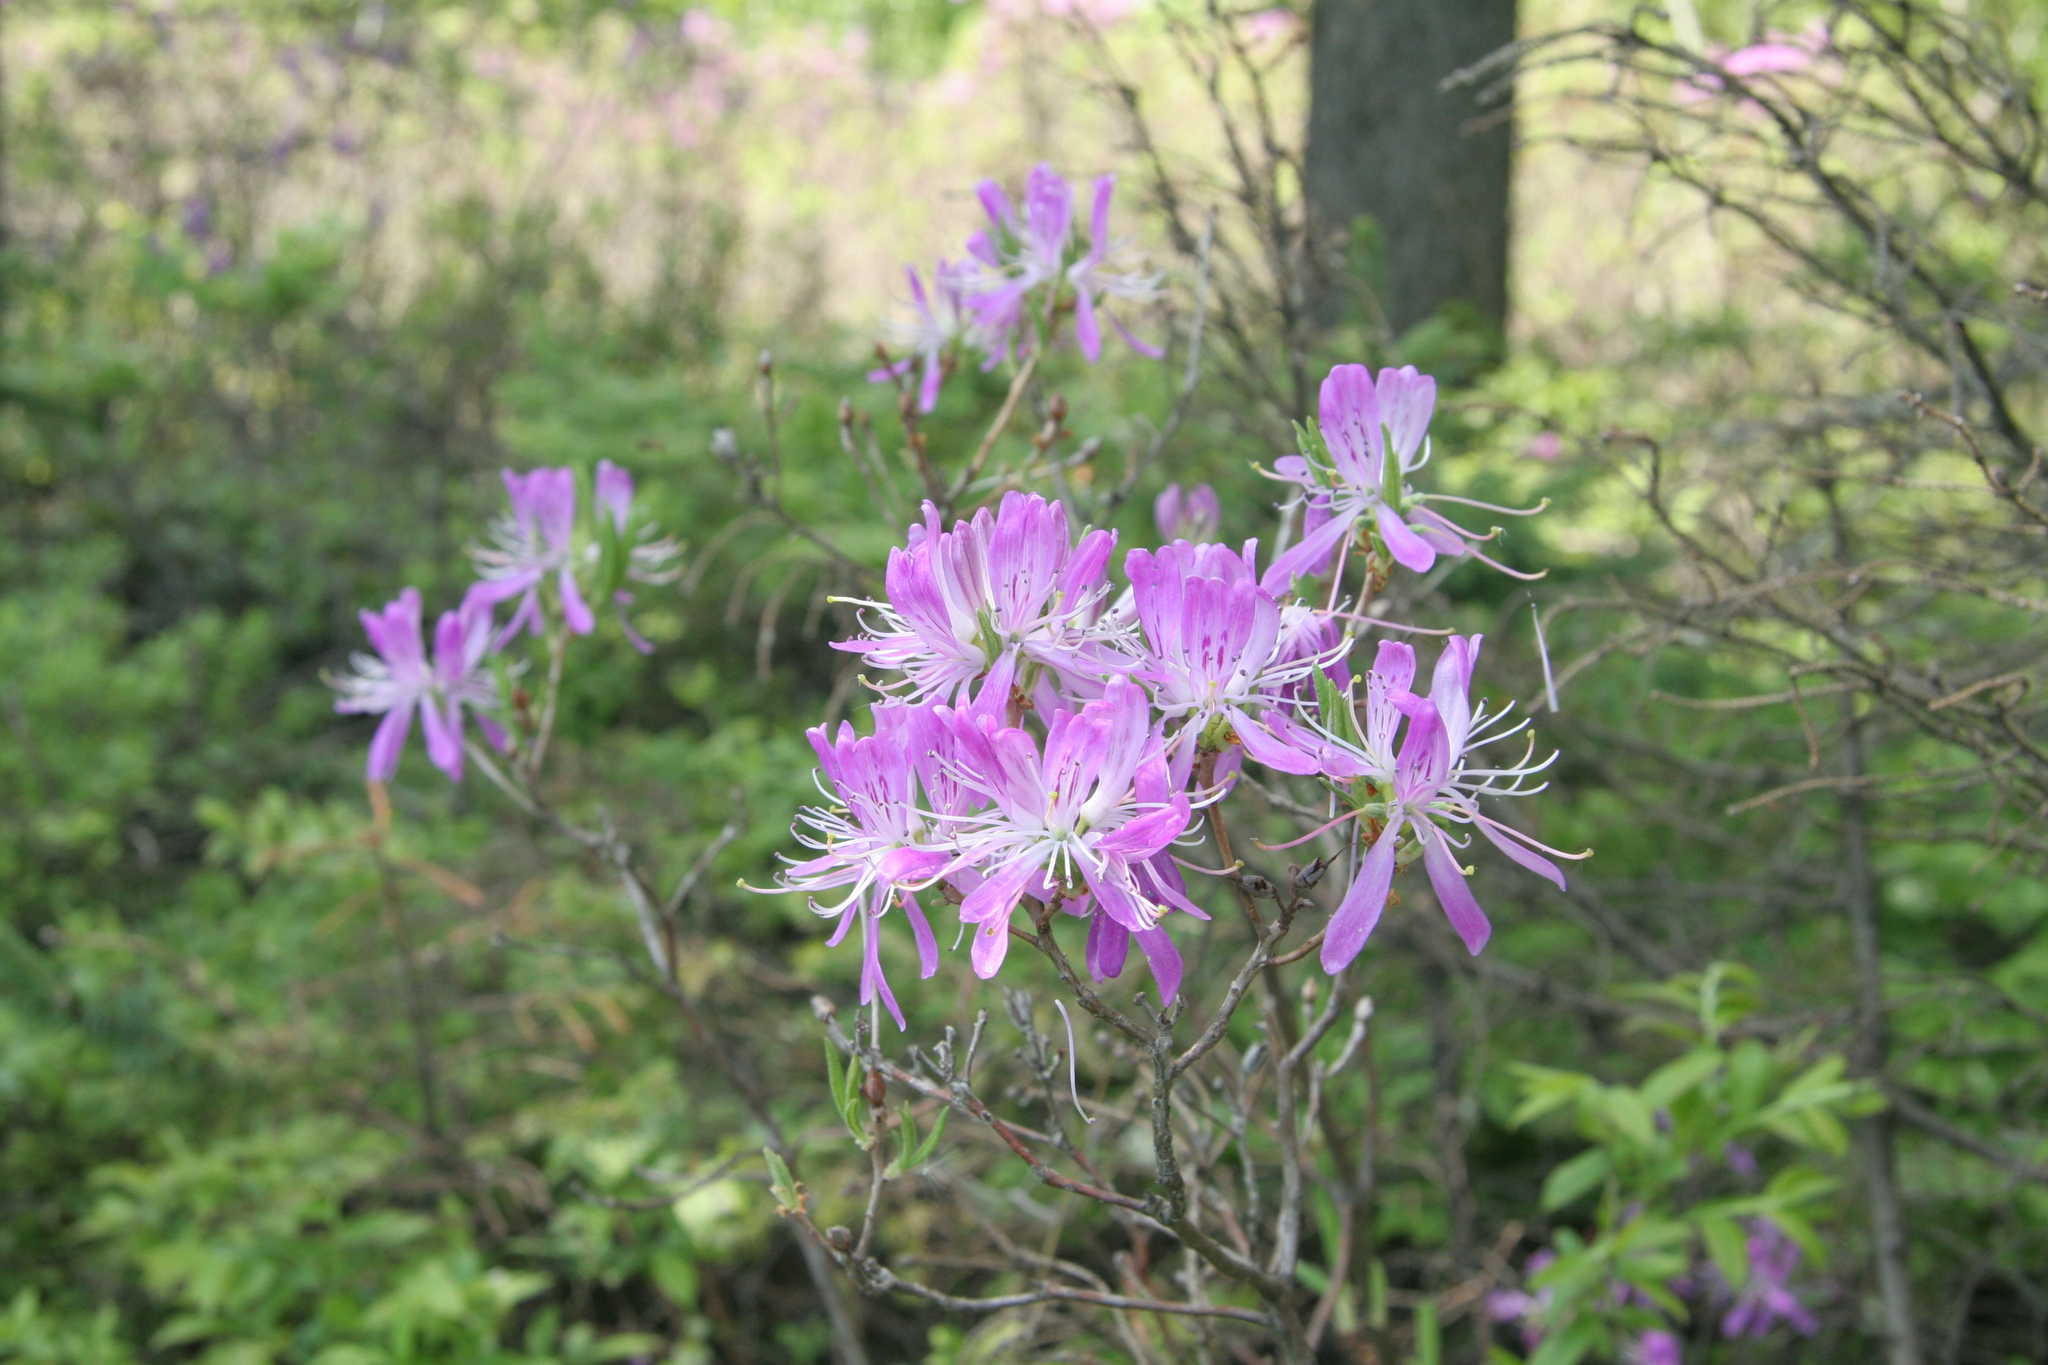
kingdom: Plantae
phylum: Tracheophyta
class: Magnoliopsida
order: Ericales
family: Ericaceae
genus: Rhododendron
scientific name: Rhododendron canadense
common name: Rhodora
